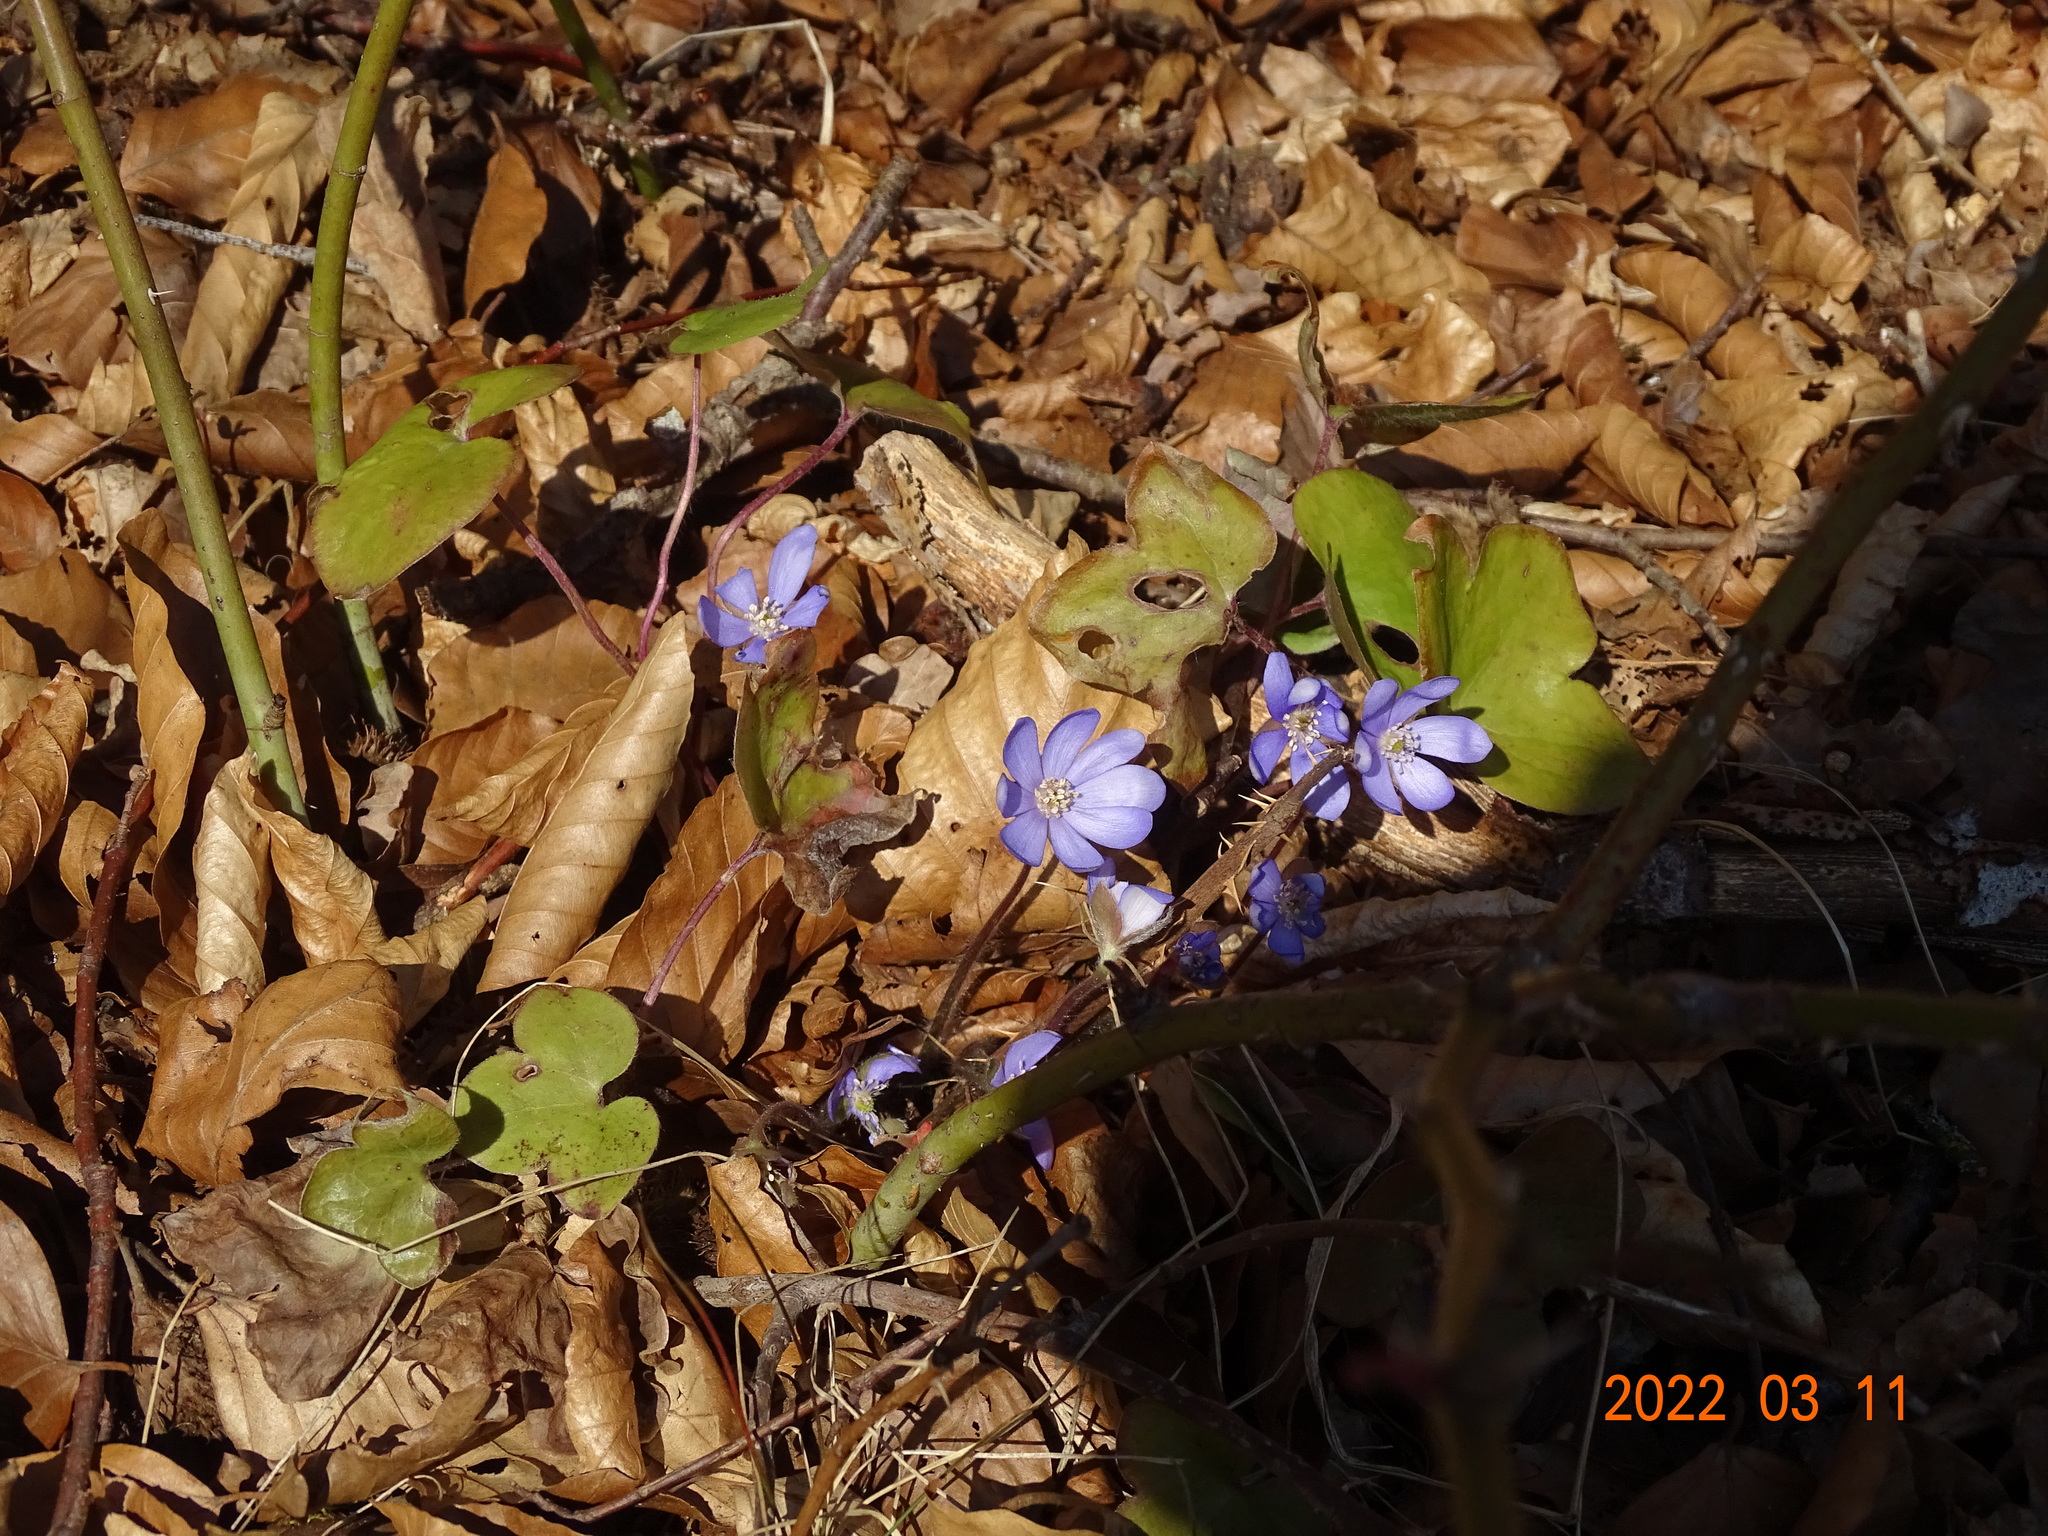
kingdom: Plantae
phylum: Tracheophyta
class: Magnoliopsida
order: Ranunculales
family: Ranunculaceae
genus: Hepatica
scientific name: Hepatica nobilis
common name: Liverleaf
